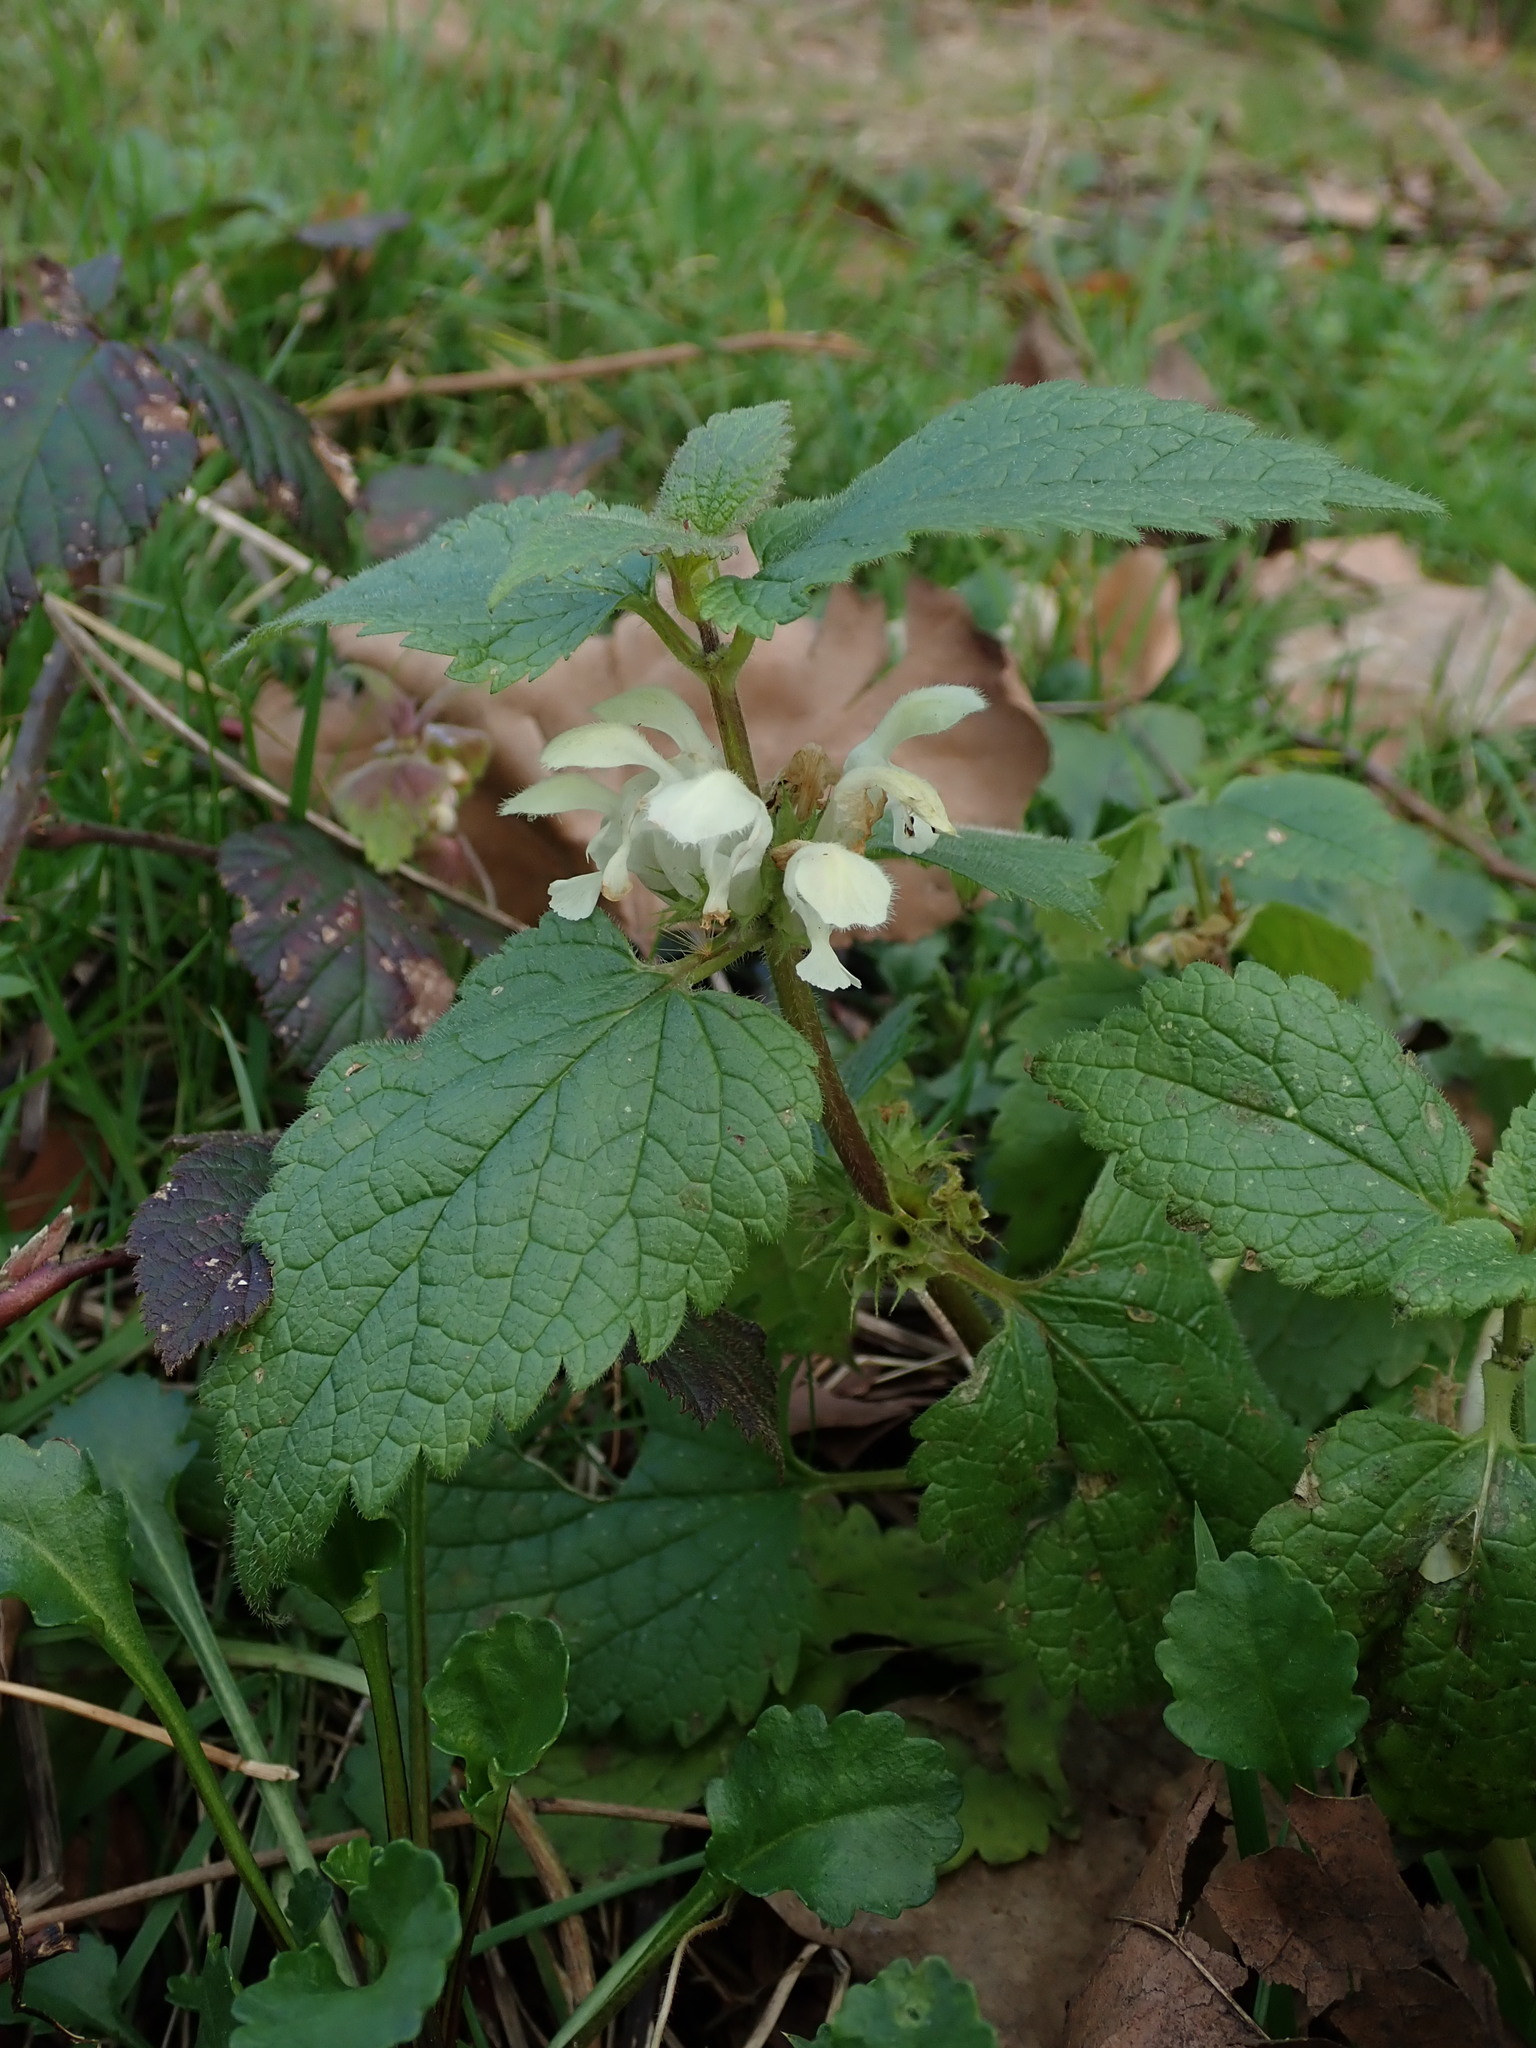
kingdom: Plantae
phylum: Tracheophyta
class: Magnoliopsida
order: Lamiales
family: Lamiaceae
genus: Lamium
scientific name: Lamium album
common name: White dead-nettle
